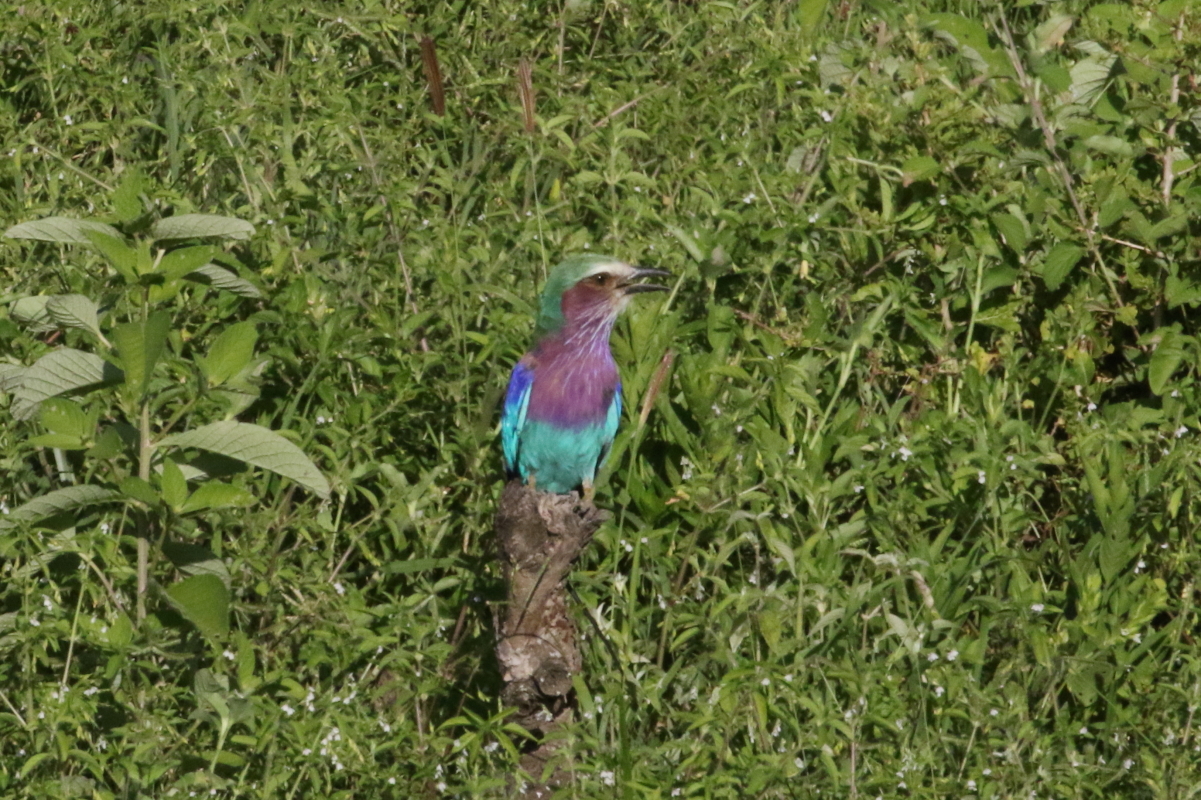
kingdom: Animalia
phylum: Chordata
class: Aves
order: Coraciiformes
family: Coraciidae
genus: Coracias
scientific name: Coracias caudatus
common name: Lilac-breasted roller
